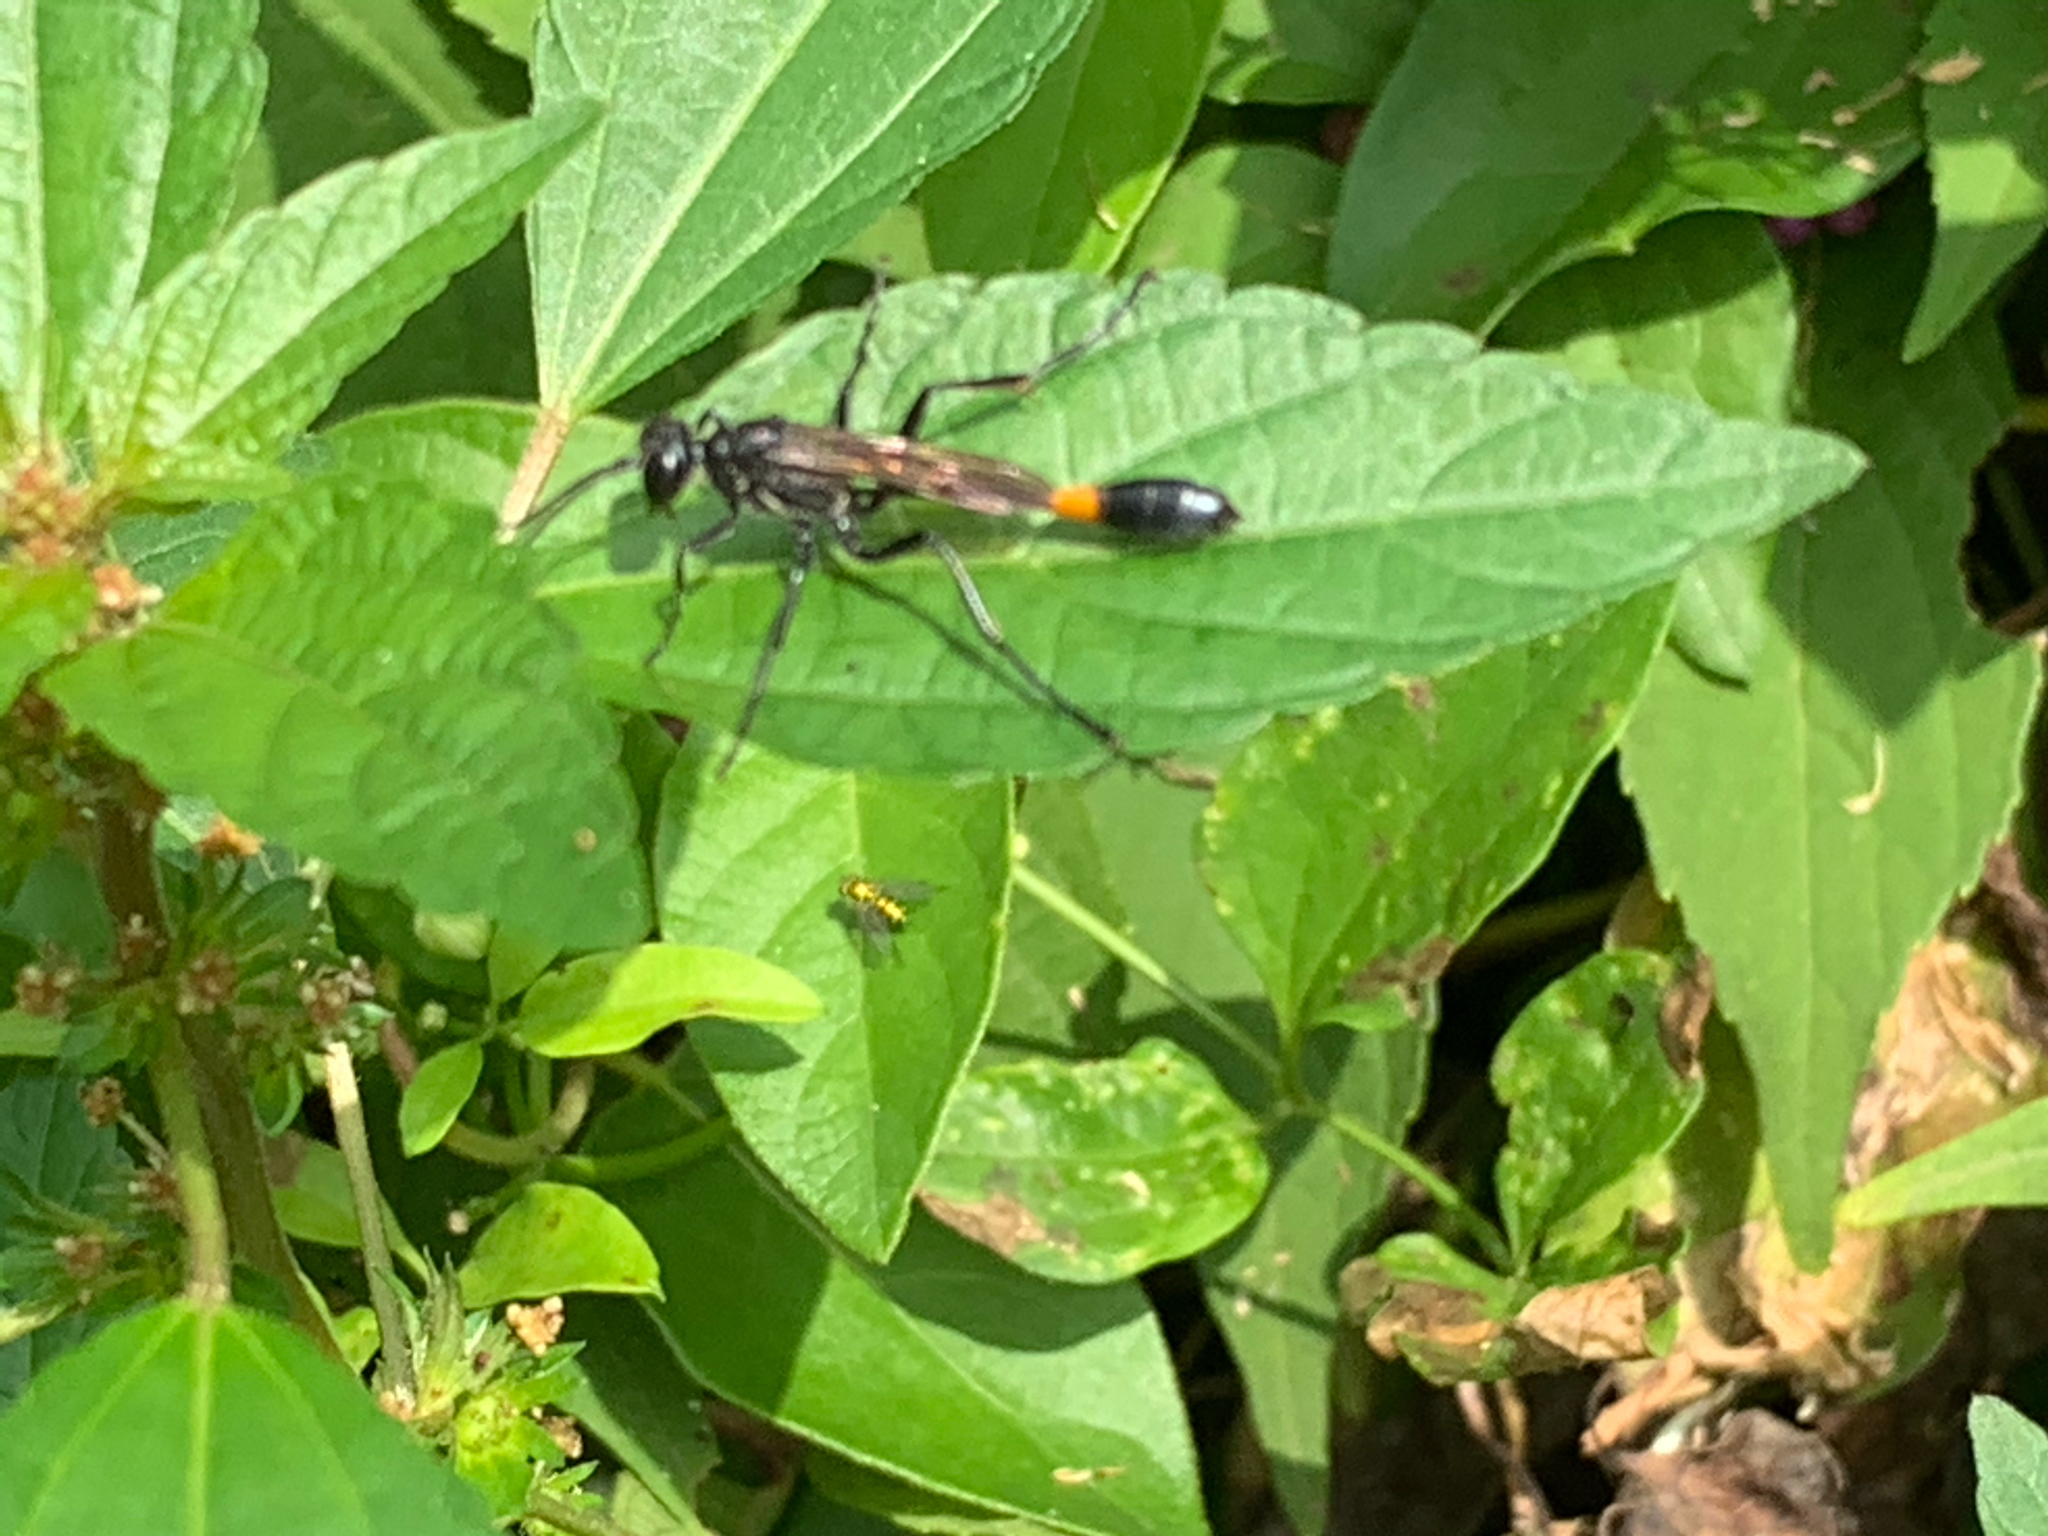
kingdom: Animalia
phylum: Arthropoda
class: Insecta
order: Hymenoptera
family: Sphecidae
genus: Ammophila
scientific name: Ammophila
